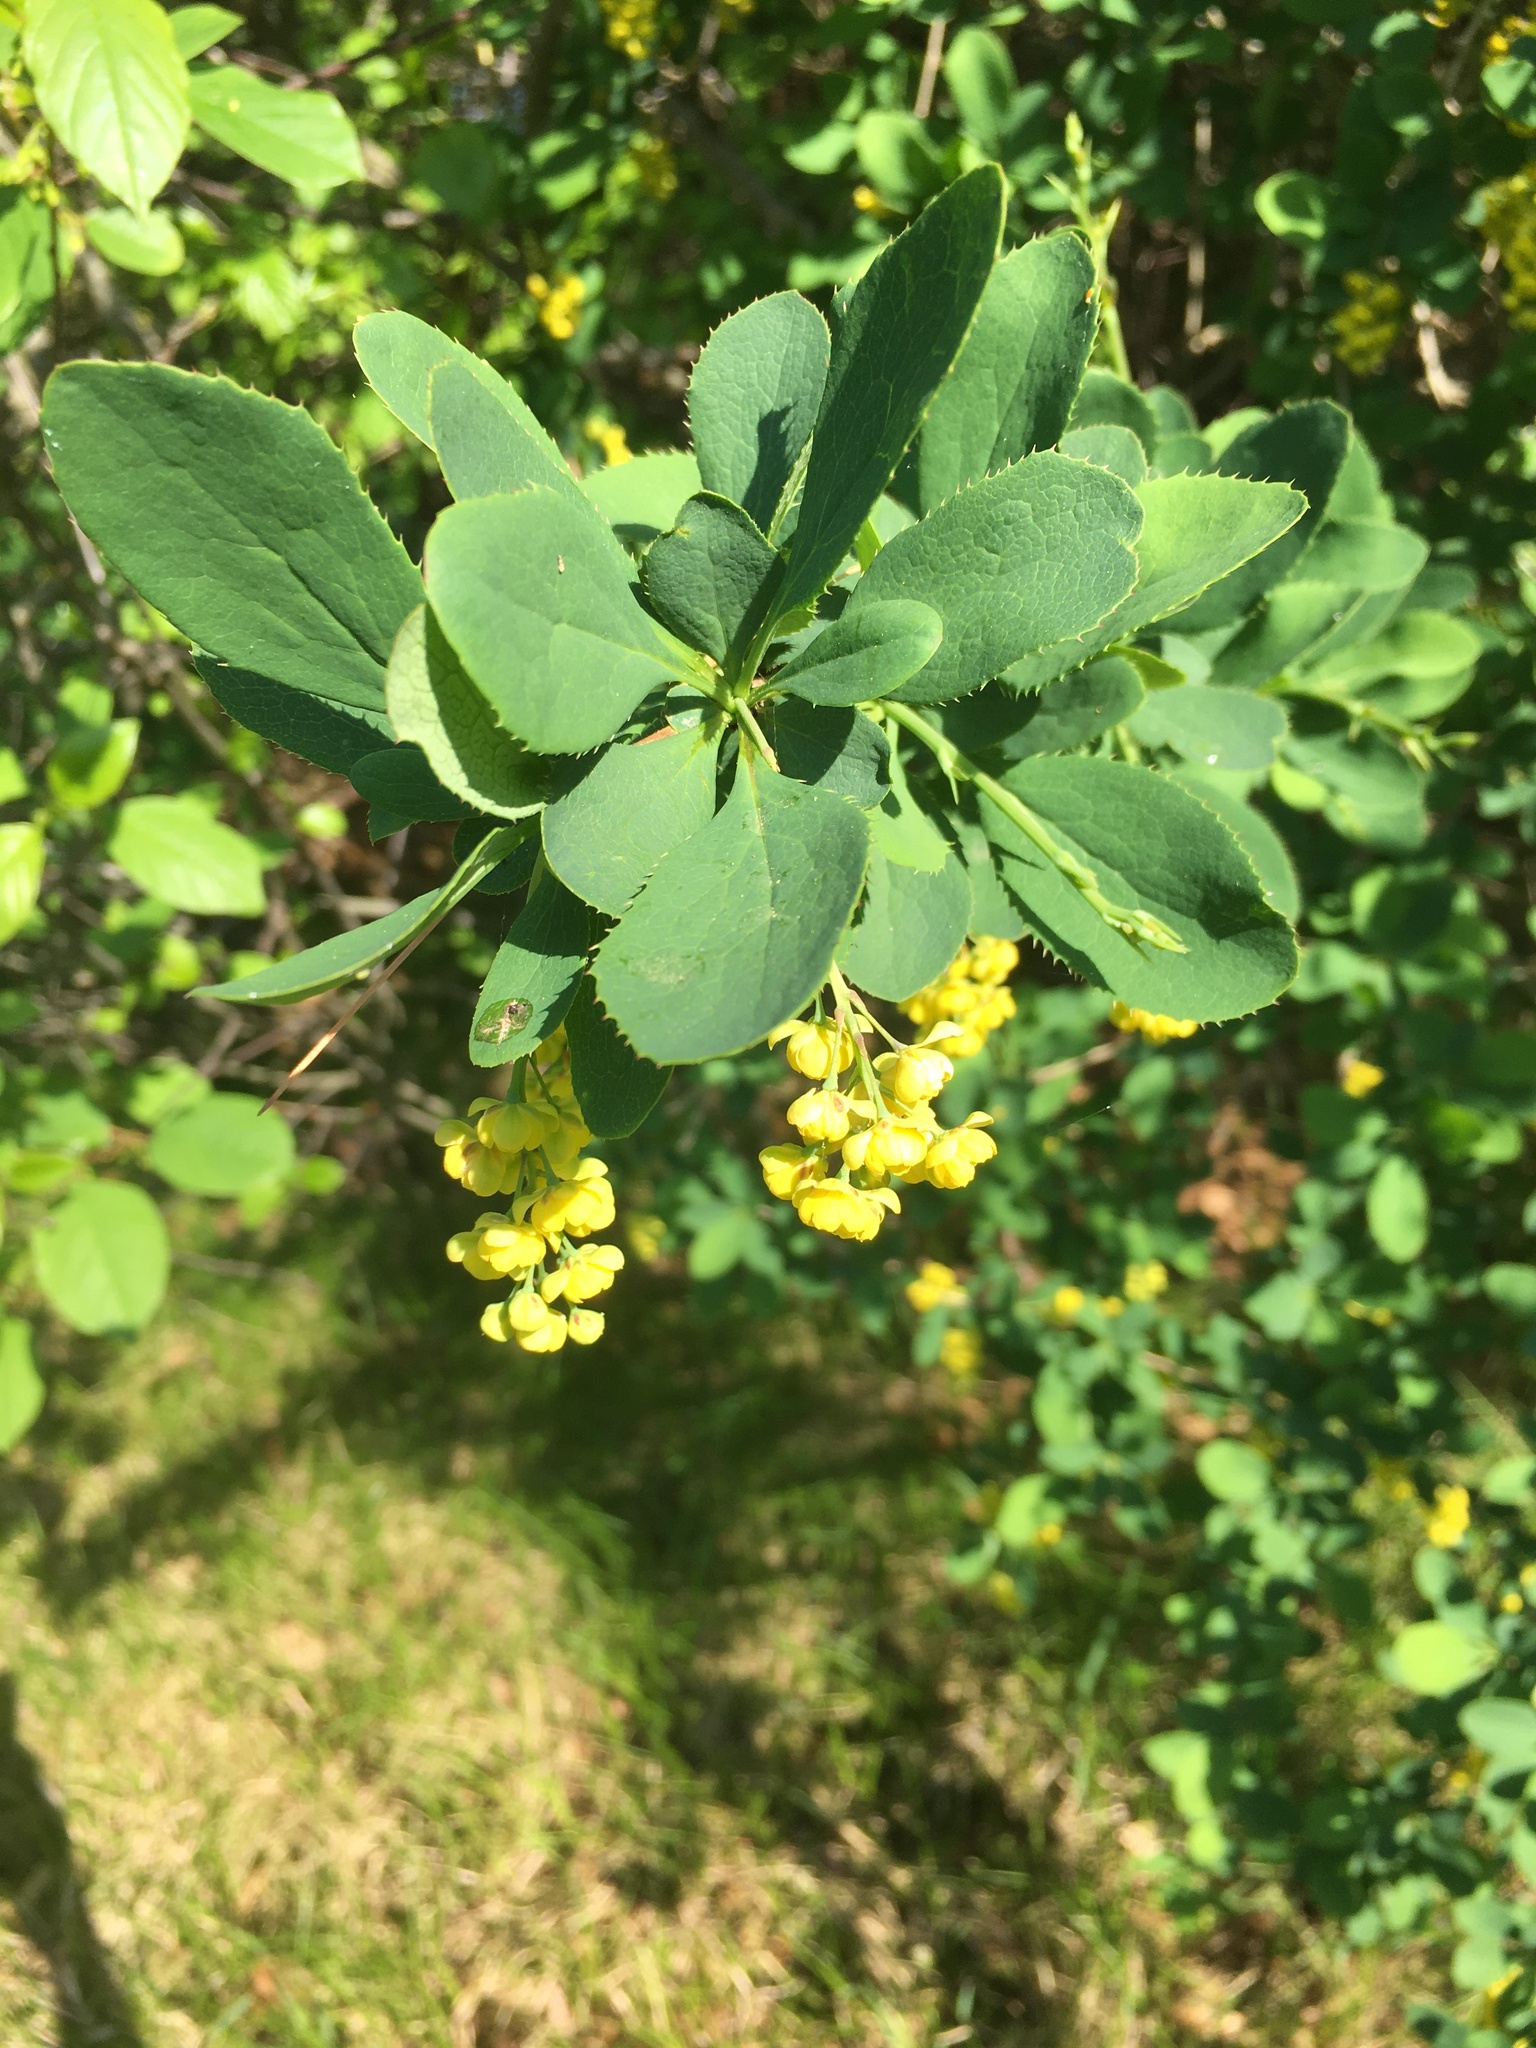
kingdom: Plantae
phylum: Tracheophyta
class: Magnoliopsida
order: Ranunculales
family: Berberidaceae
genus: Berberis
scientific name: Berberis vulgaris
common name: Barberry
